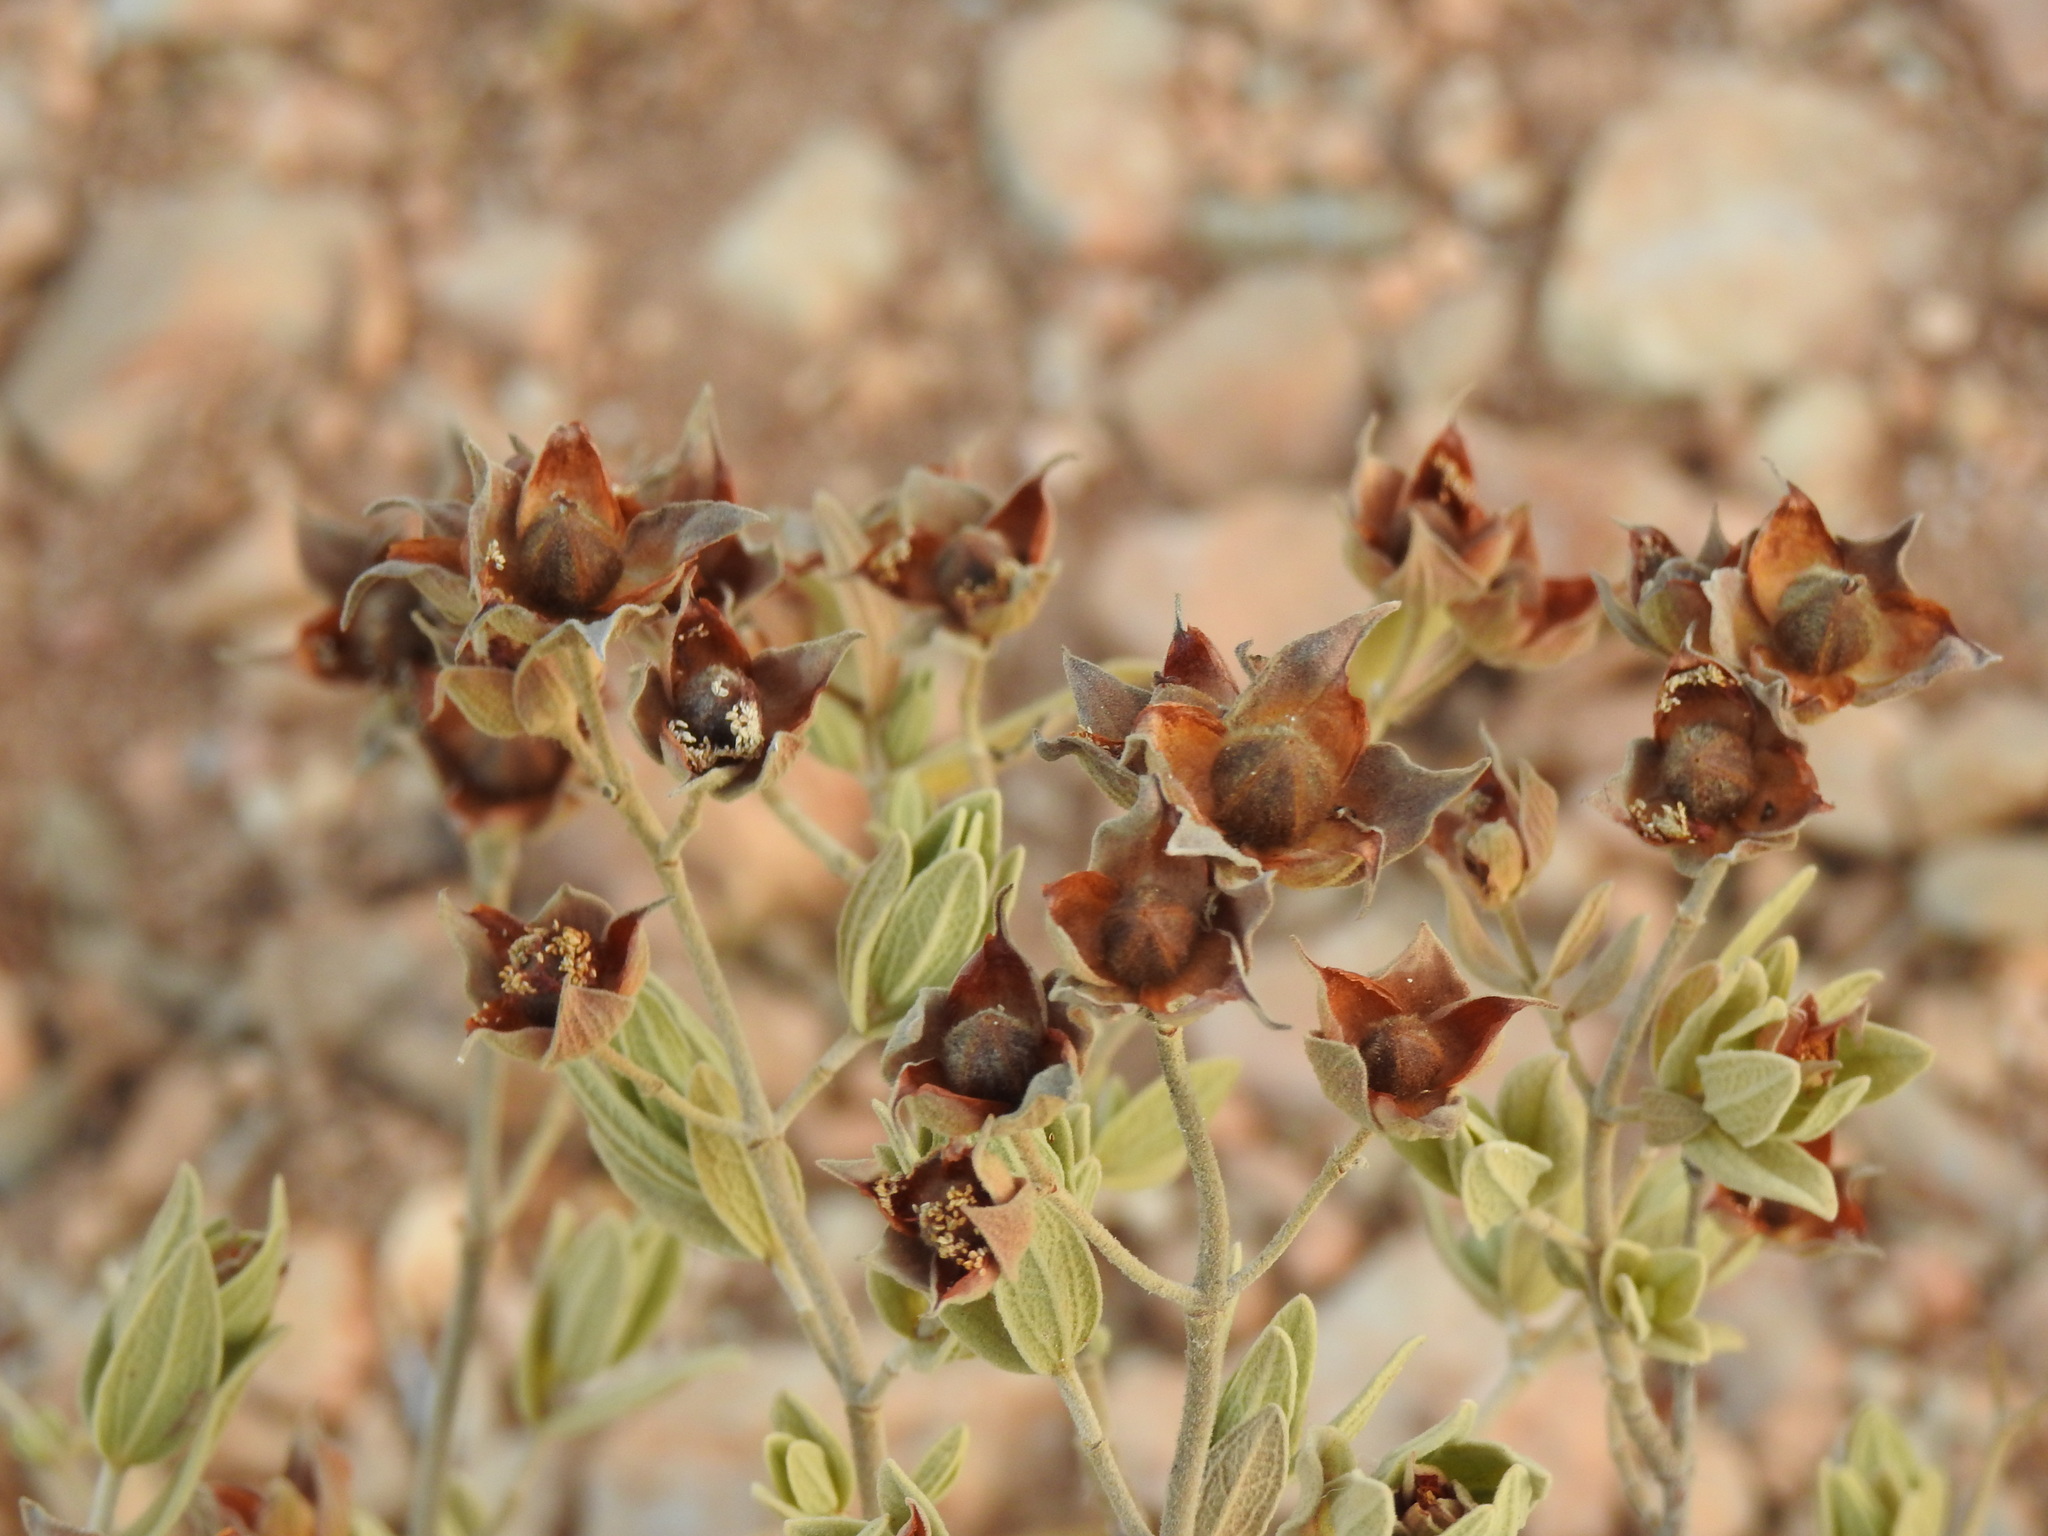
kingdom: Plantae
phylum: Tracheophyta
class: Magnoliopsida
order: Malvales
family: Cistaceae
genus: Cistus
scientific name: Cistus albidus
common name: White-leaf rock-rose
